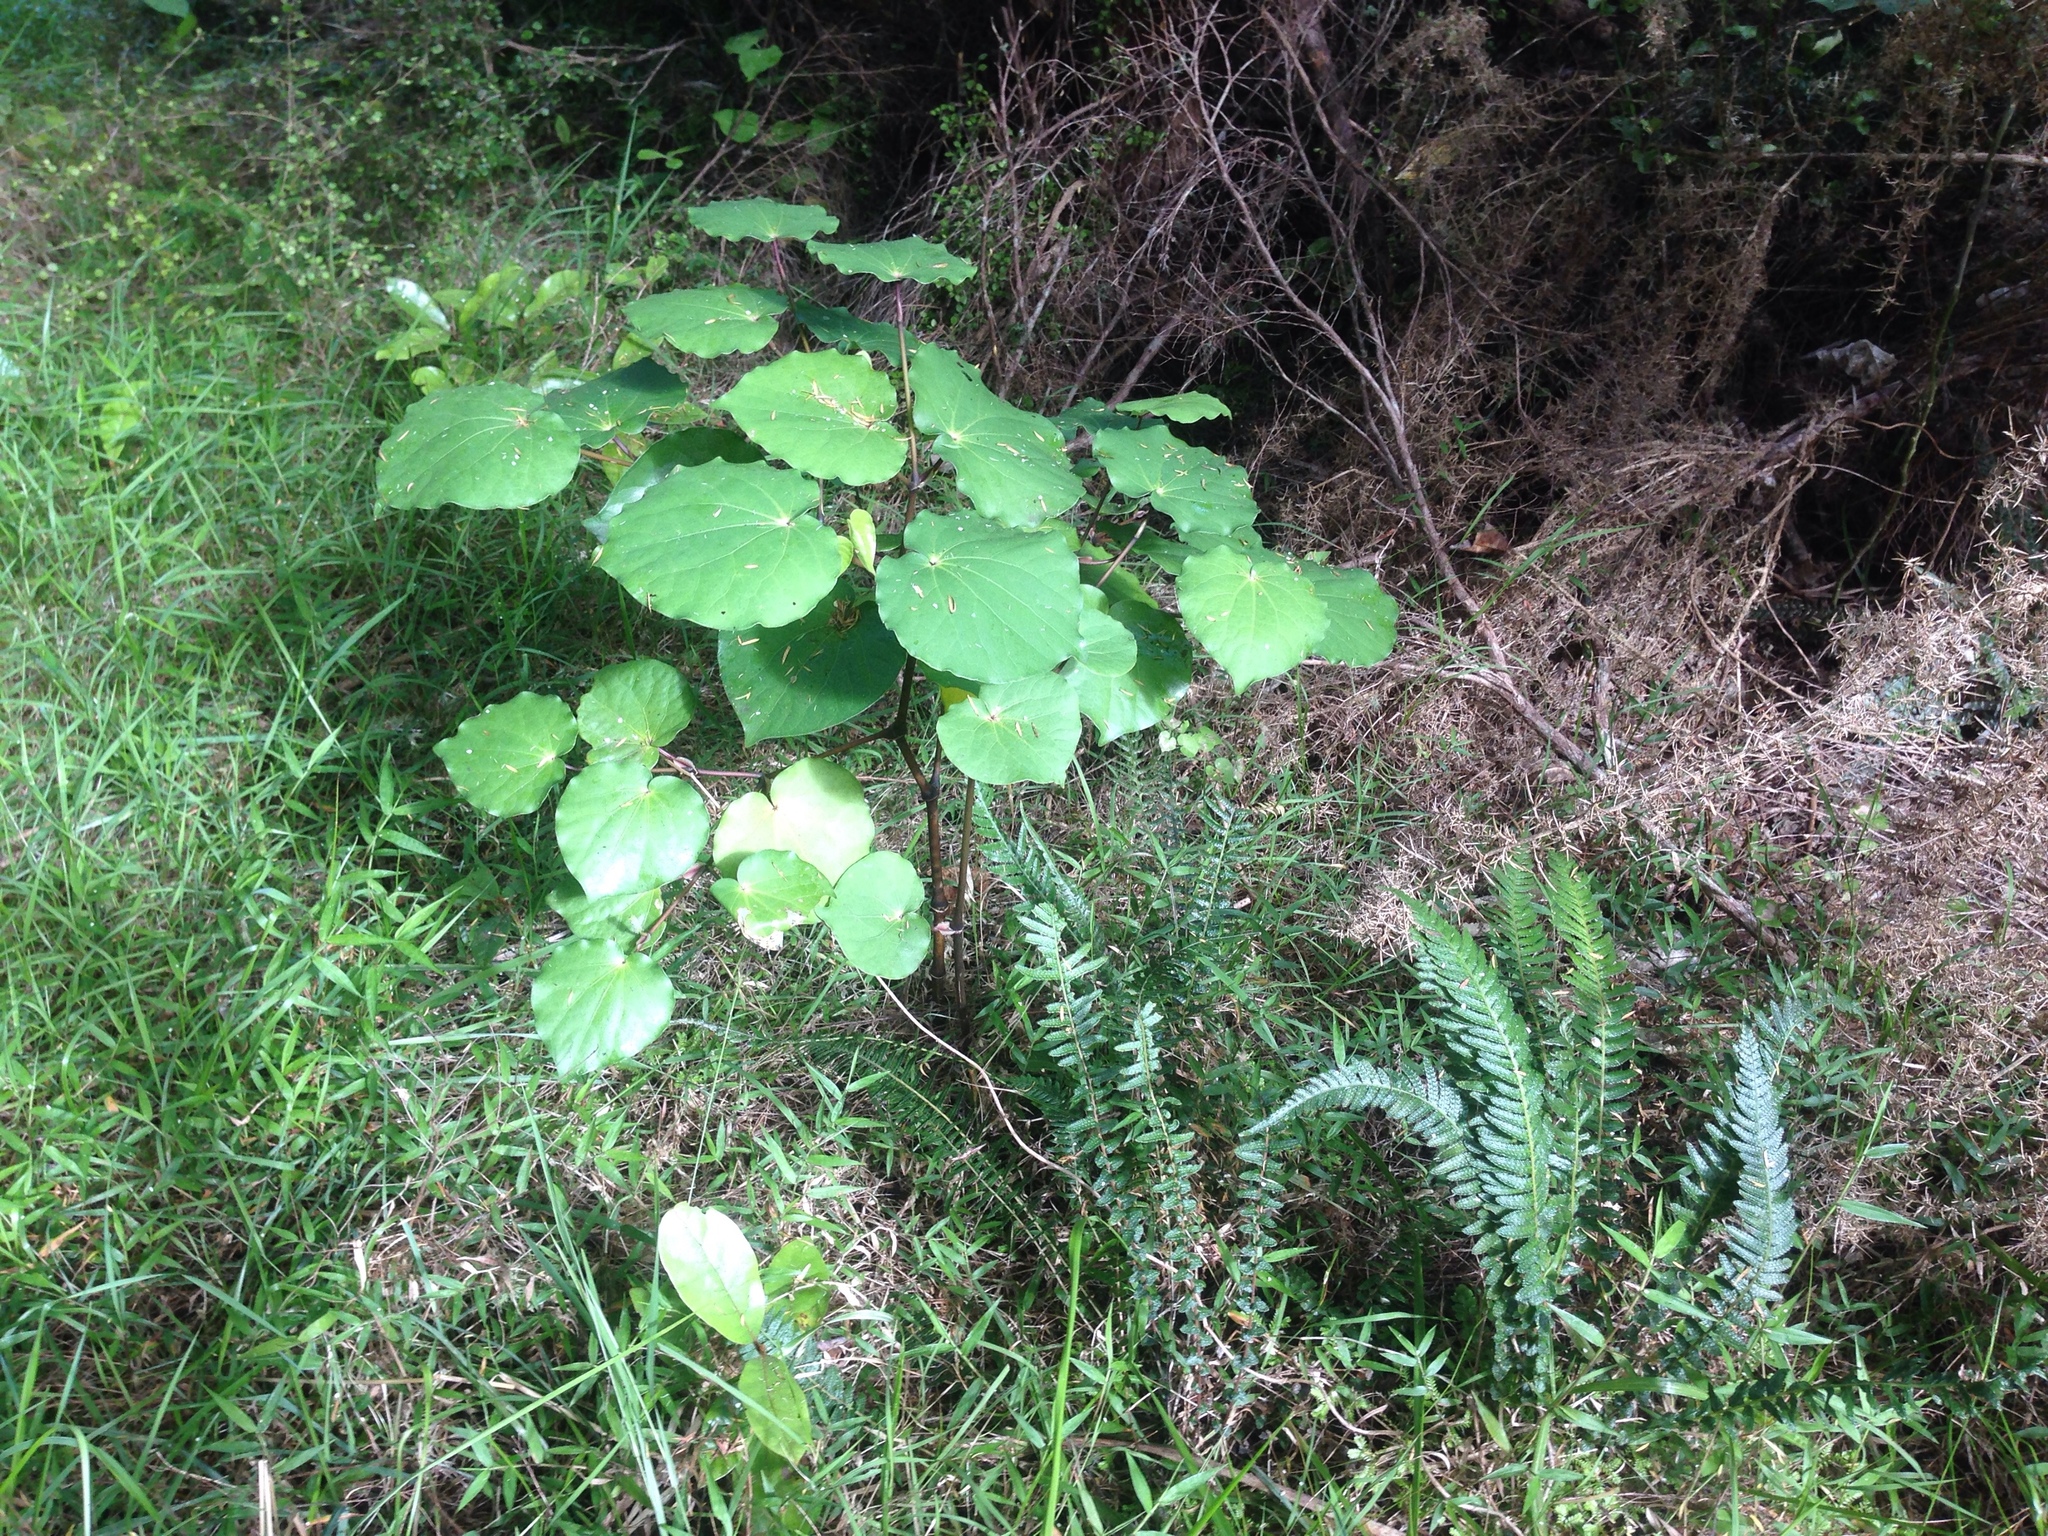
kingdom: Plantae
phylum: Tracheophyta
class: Magnoliopsida
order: Piperales
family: Piperaceae
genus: Macropiper
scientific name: Macropiper excelsum
